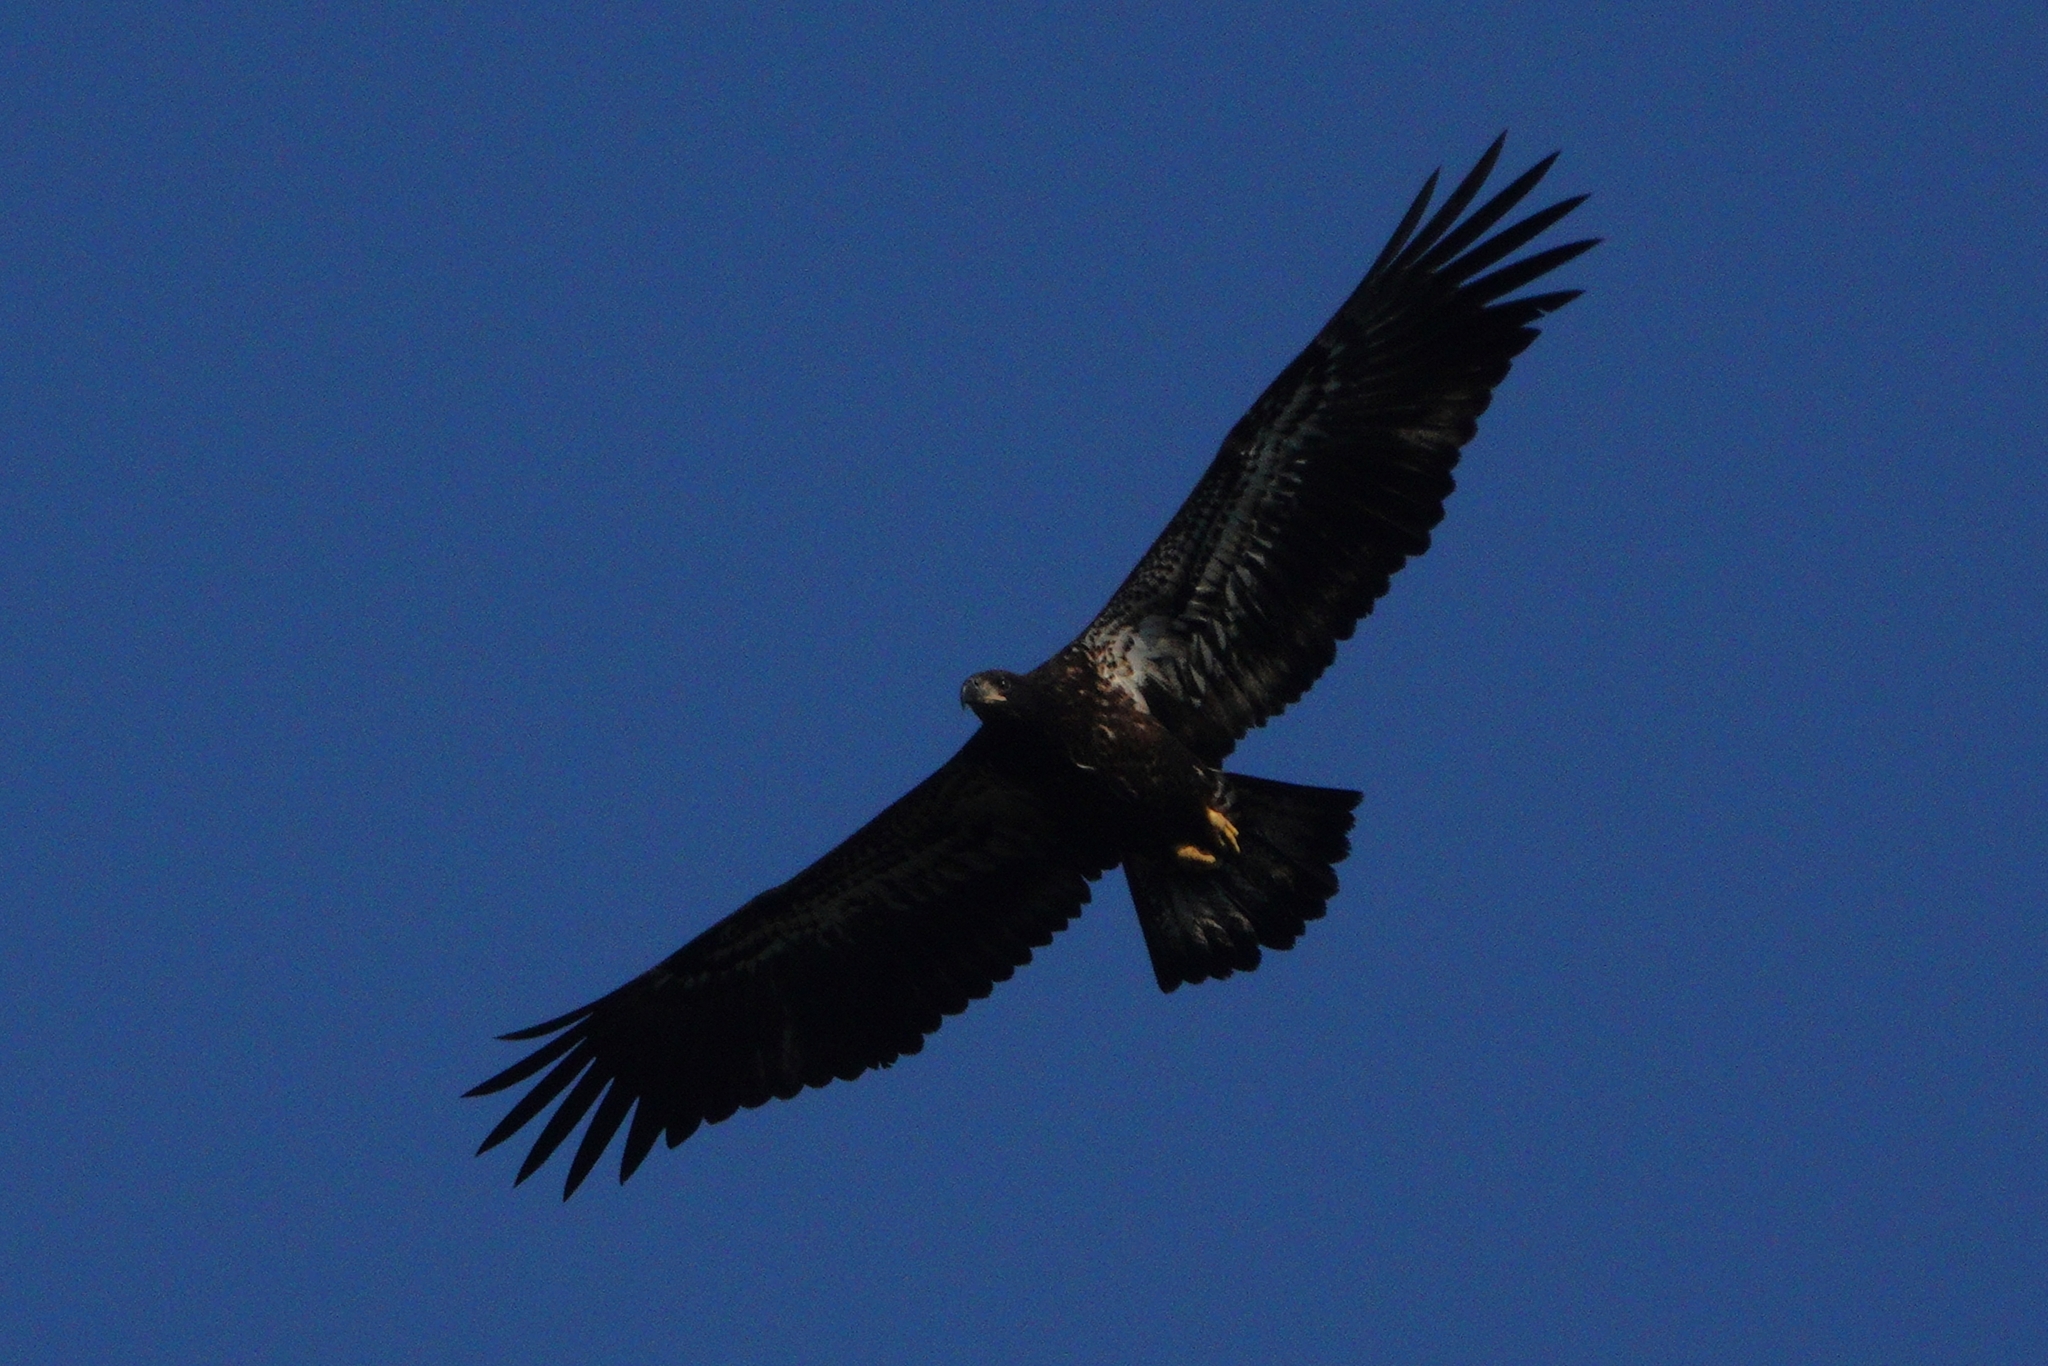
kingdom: Animalia
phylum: Chordata
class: Aves
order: Accipitriformes
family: Accipitridae
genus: Haliaeetus
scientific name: Haliaeetus leucocephalus
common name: Bald eagle
